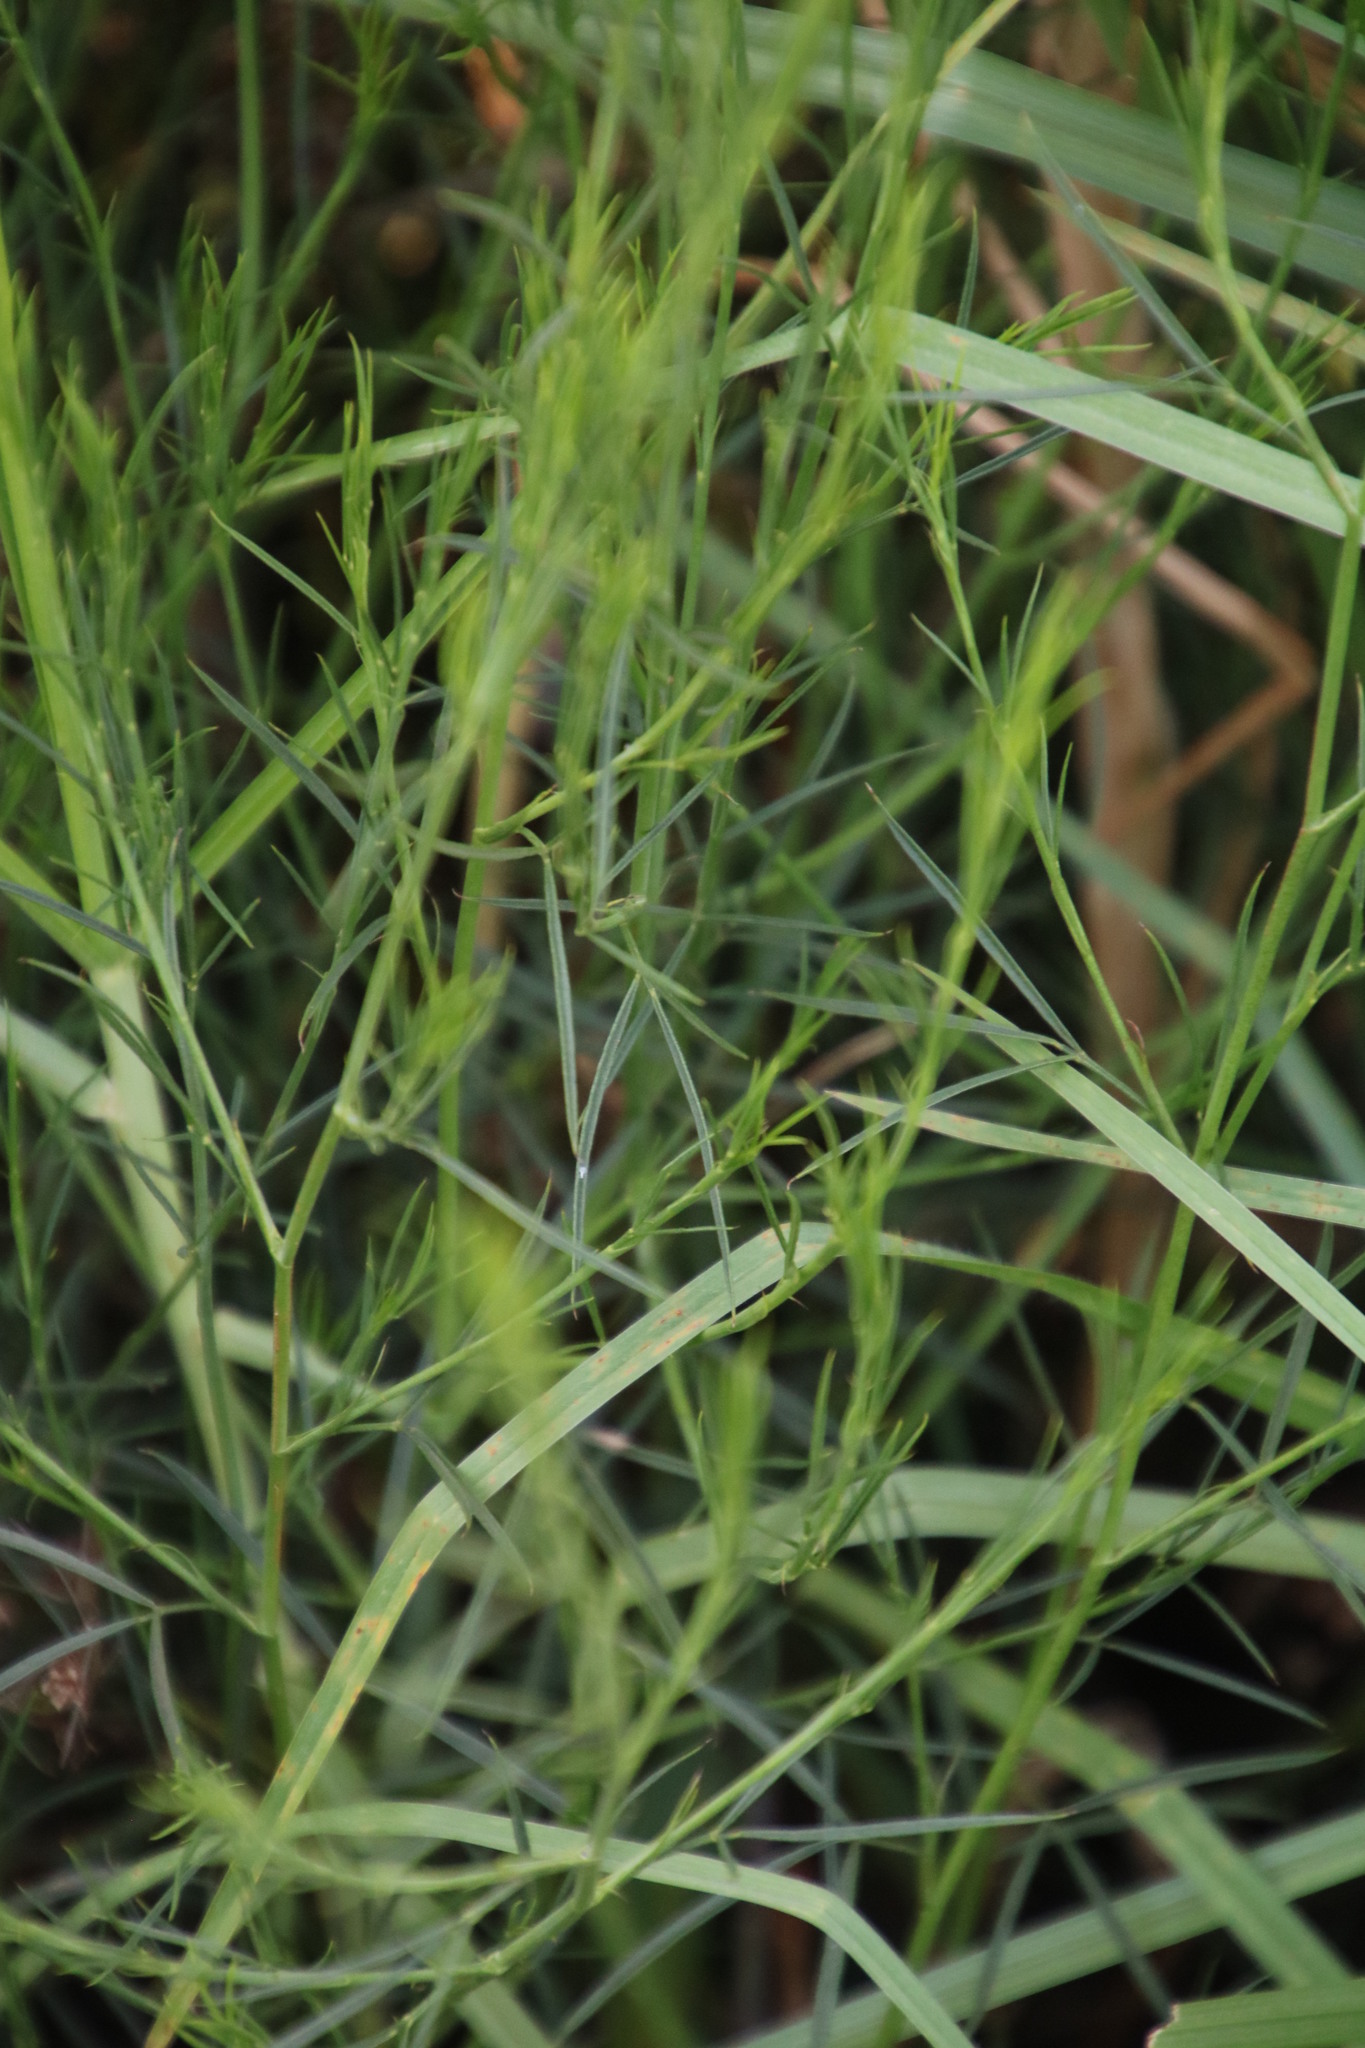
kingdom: Plantae
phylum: Tracheophyta
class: Magnoliopsida
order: Fabales
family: Fabaceae
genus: Psoralea
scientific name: Psoralea fascicularis
